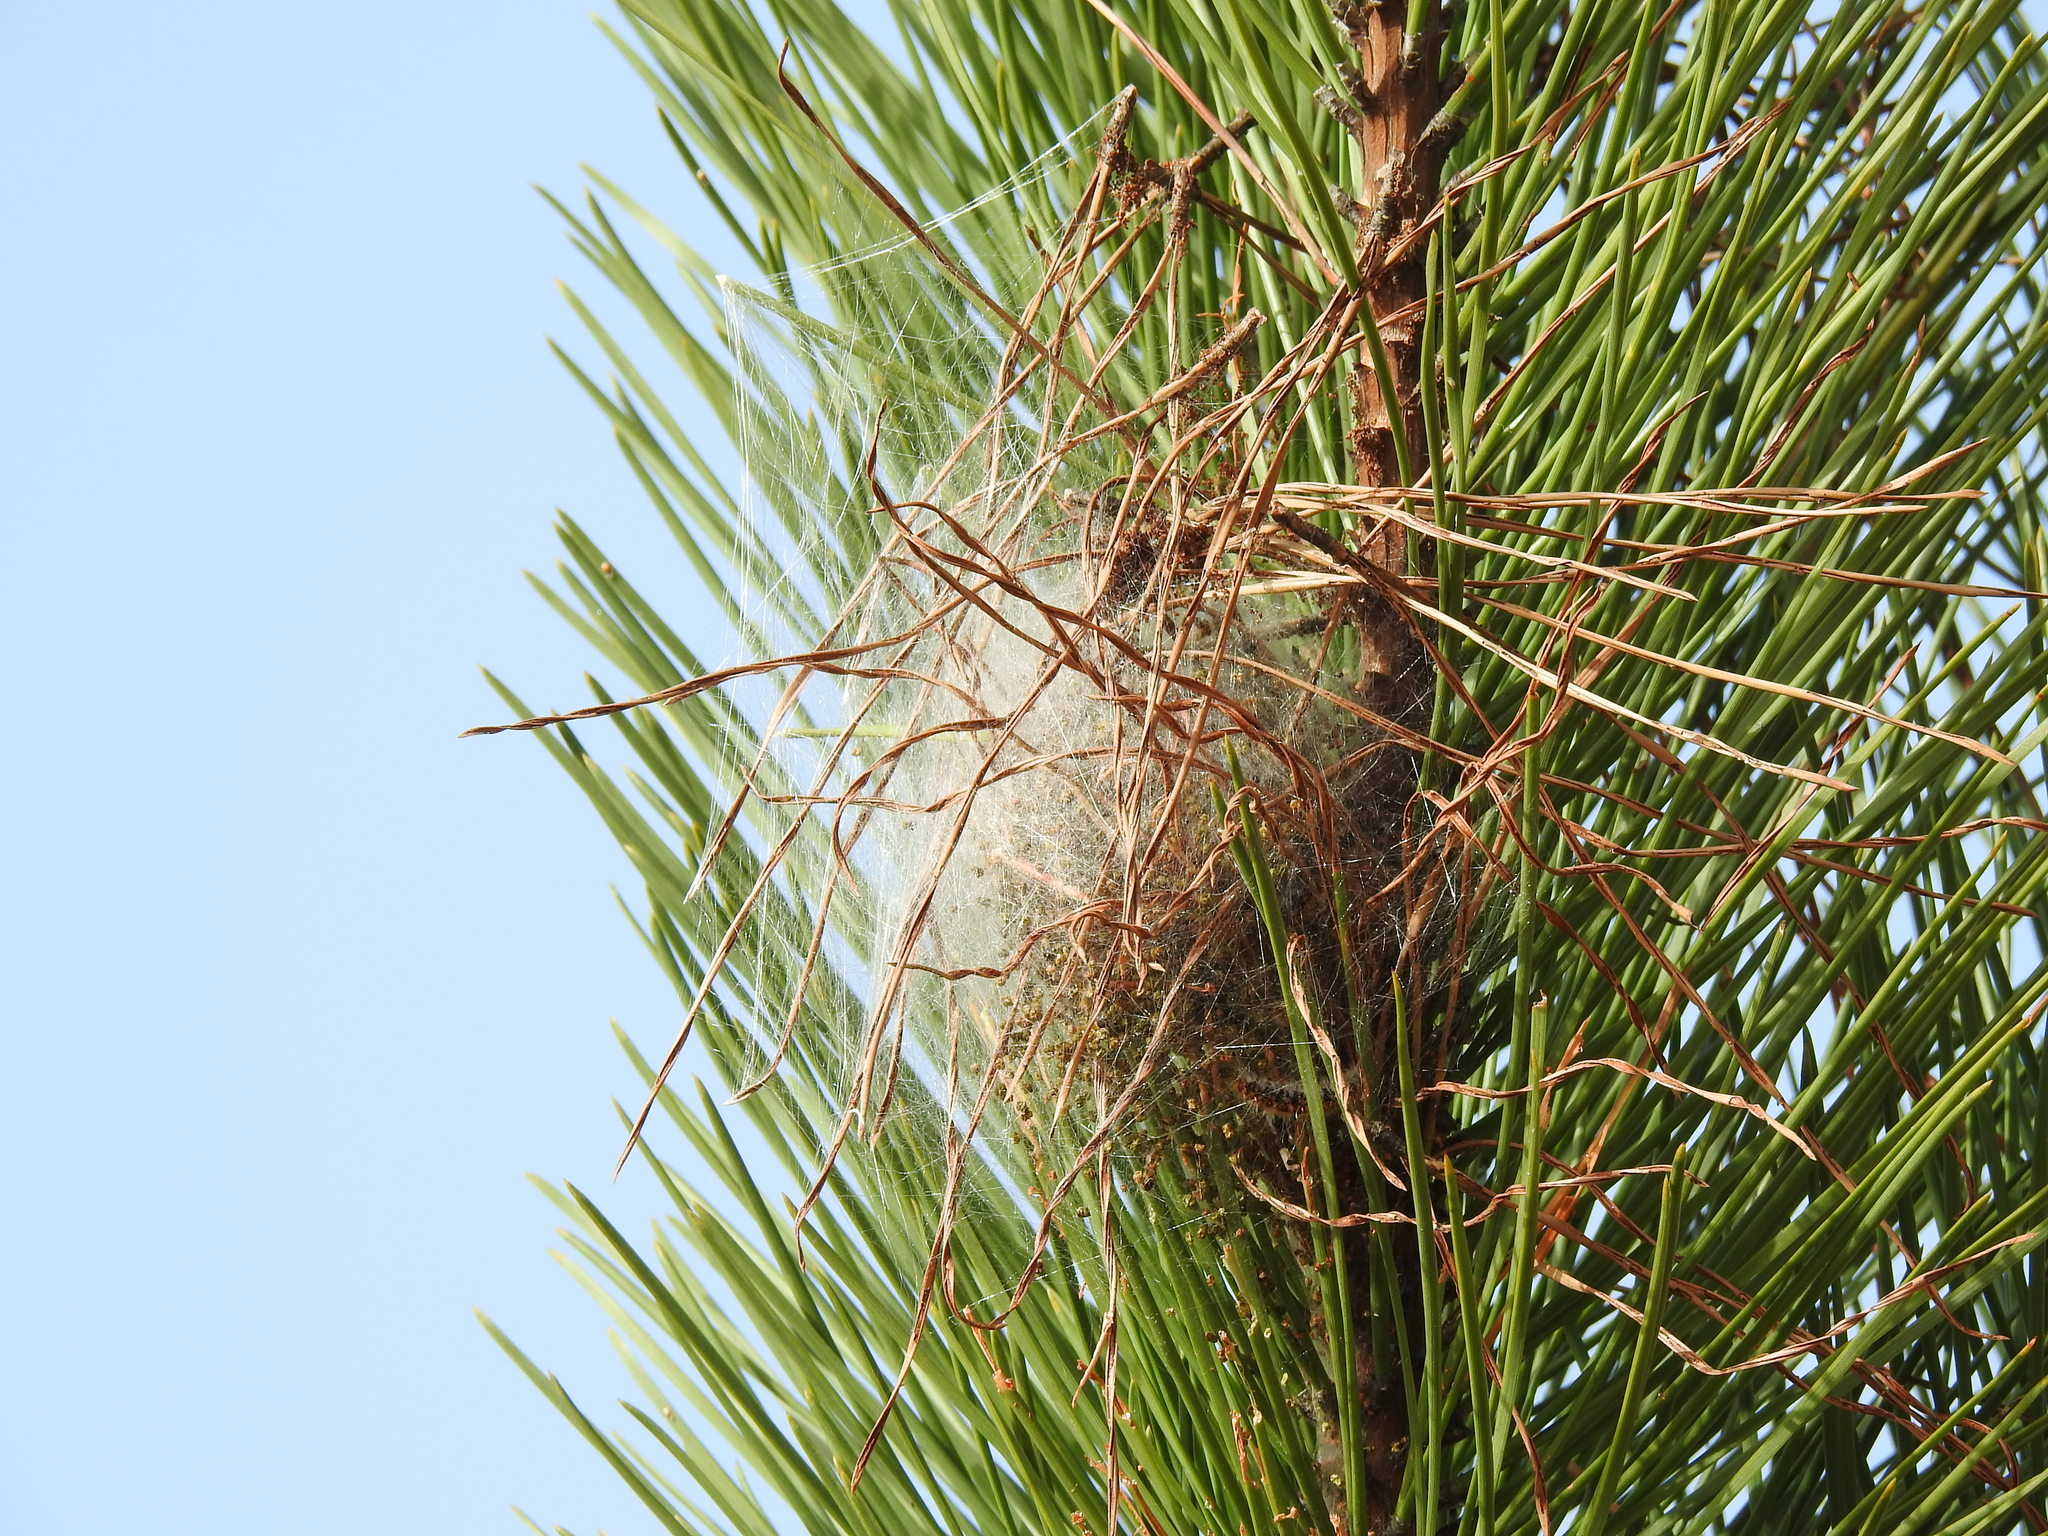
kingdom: Animalia
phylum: Arthropoda
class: Insecta
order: Lepidoptera
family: Notodontidae
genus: Thaumetopoea
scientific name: Thaumetopoea pityocampa
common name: Pine processionary
